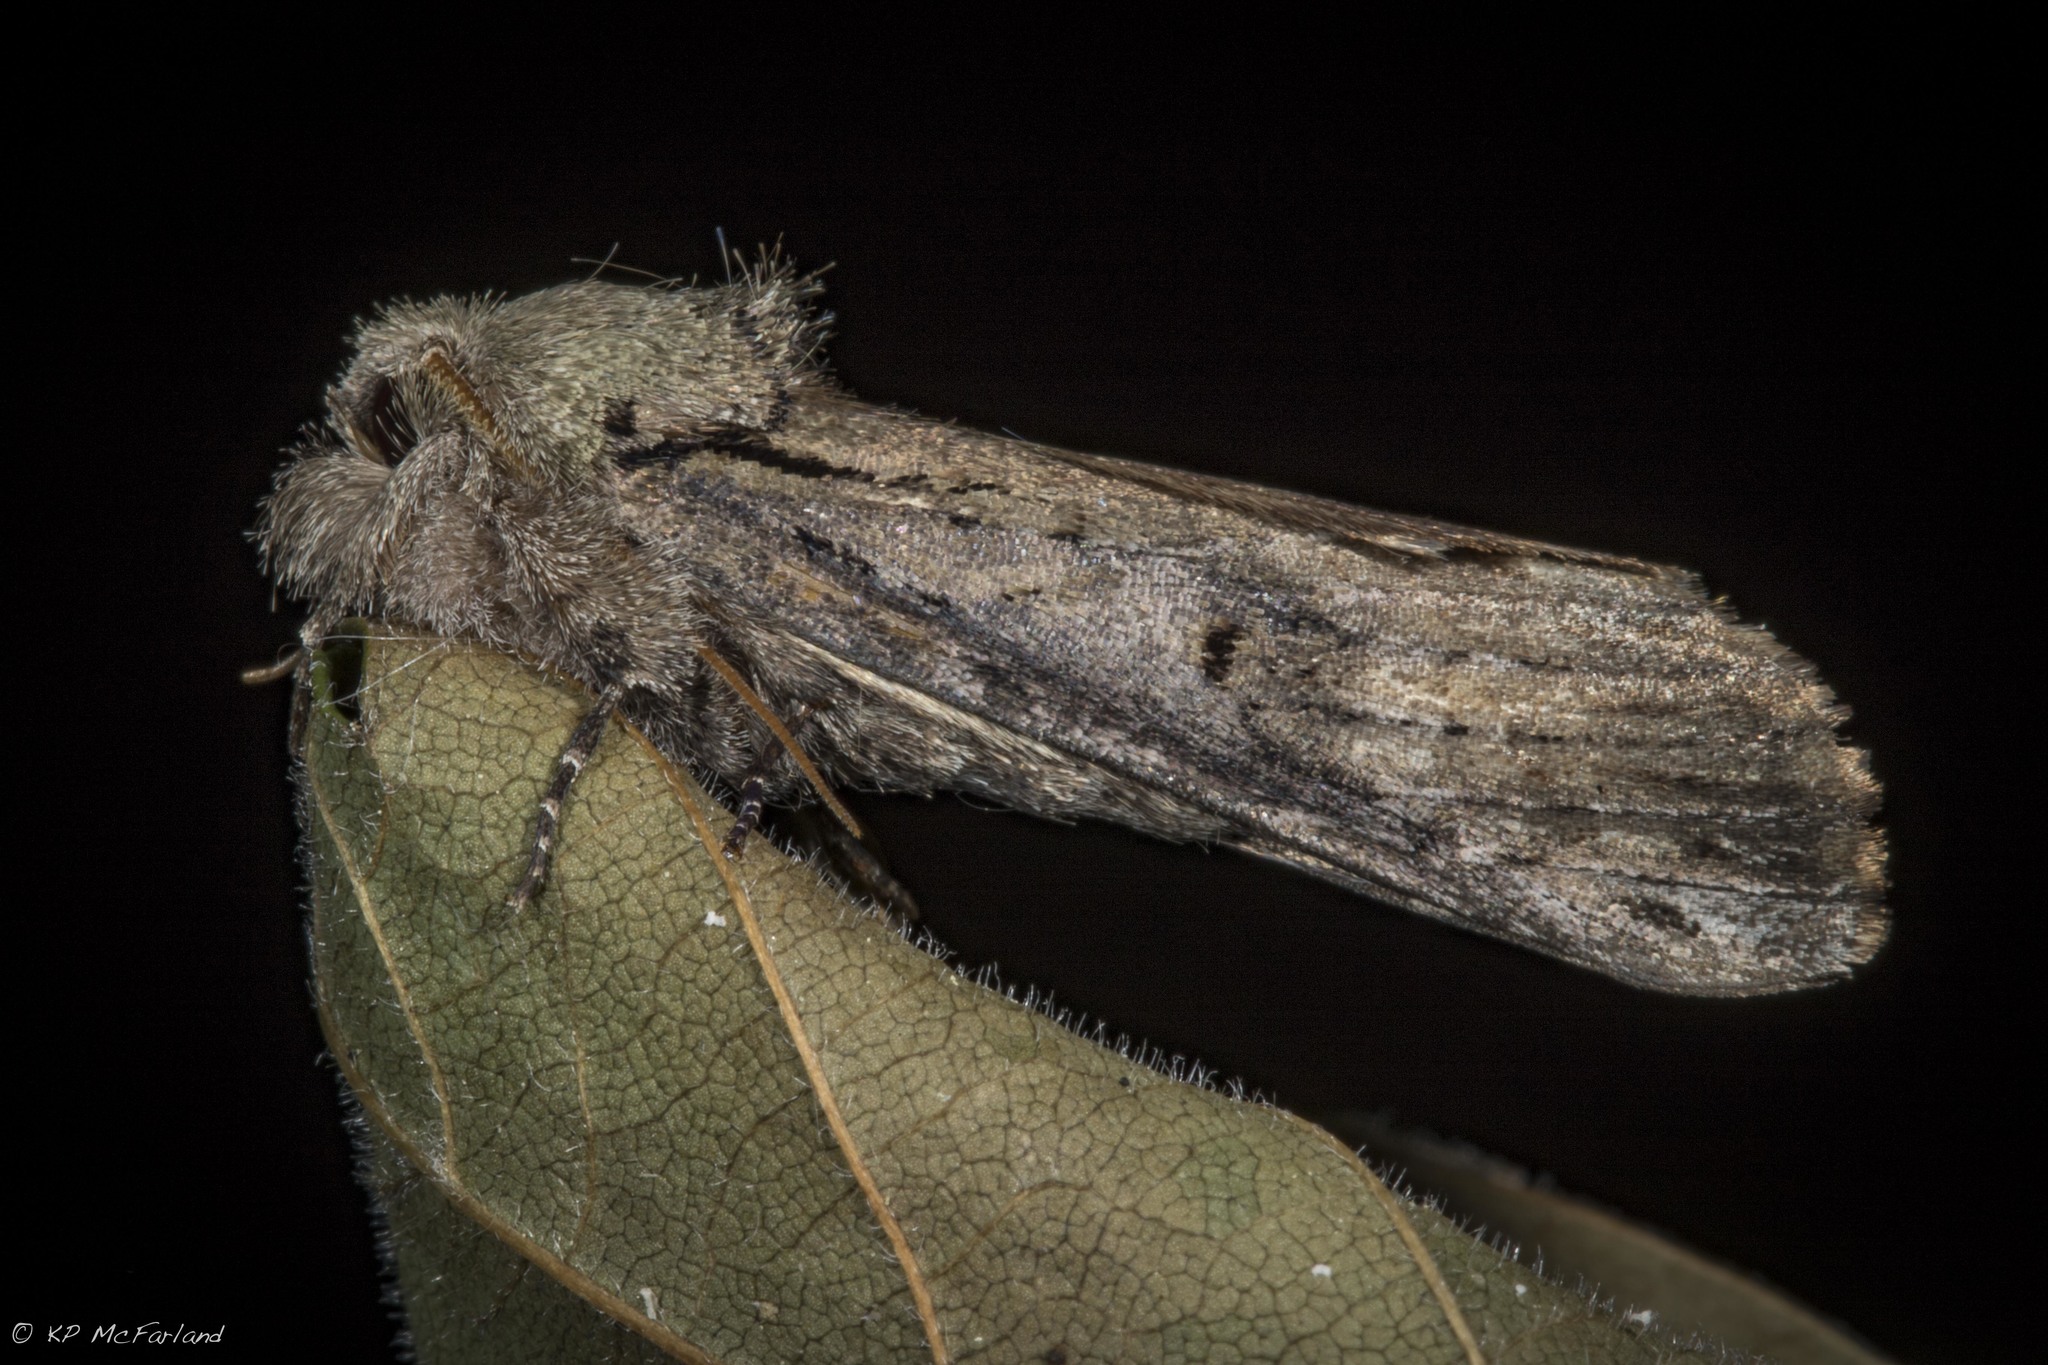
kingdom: Animalia
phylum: Arthropoda
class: Insecta
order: Lepidoptera
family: Notodontidae
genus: Schizura
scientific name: Schizura
